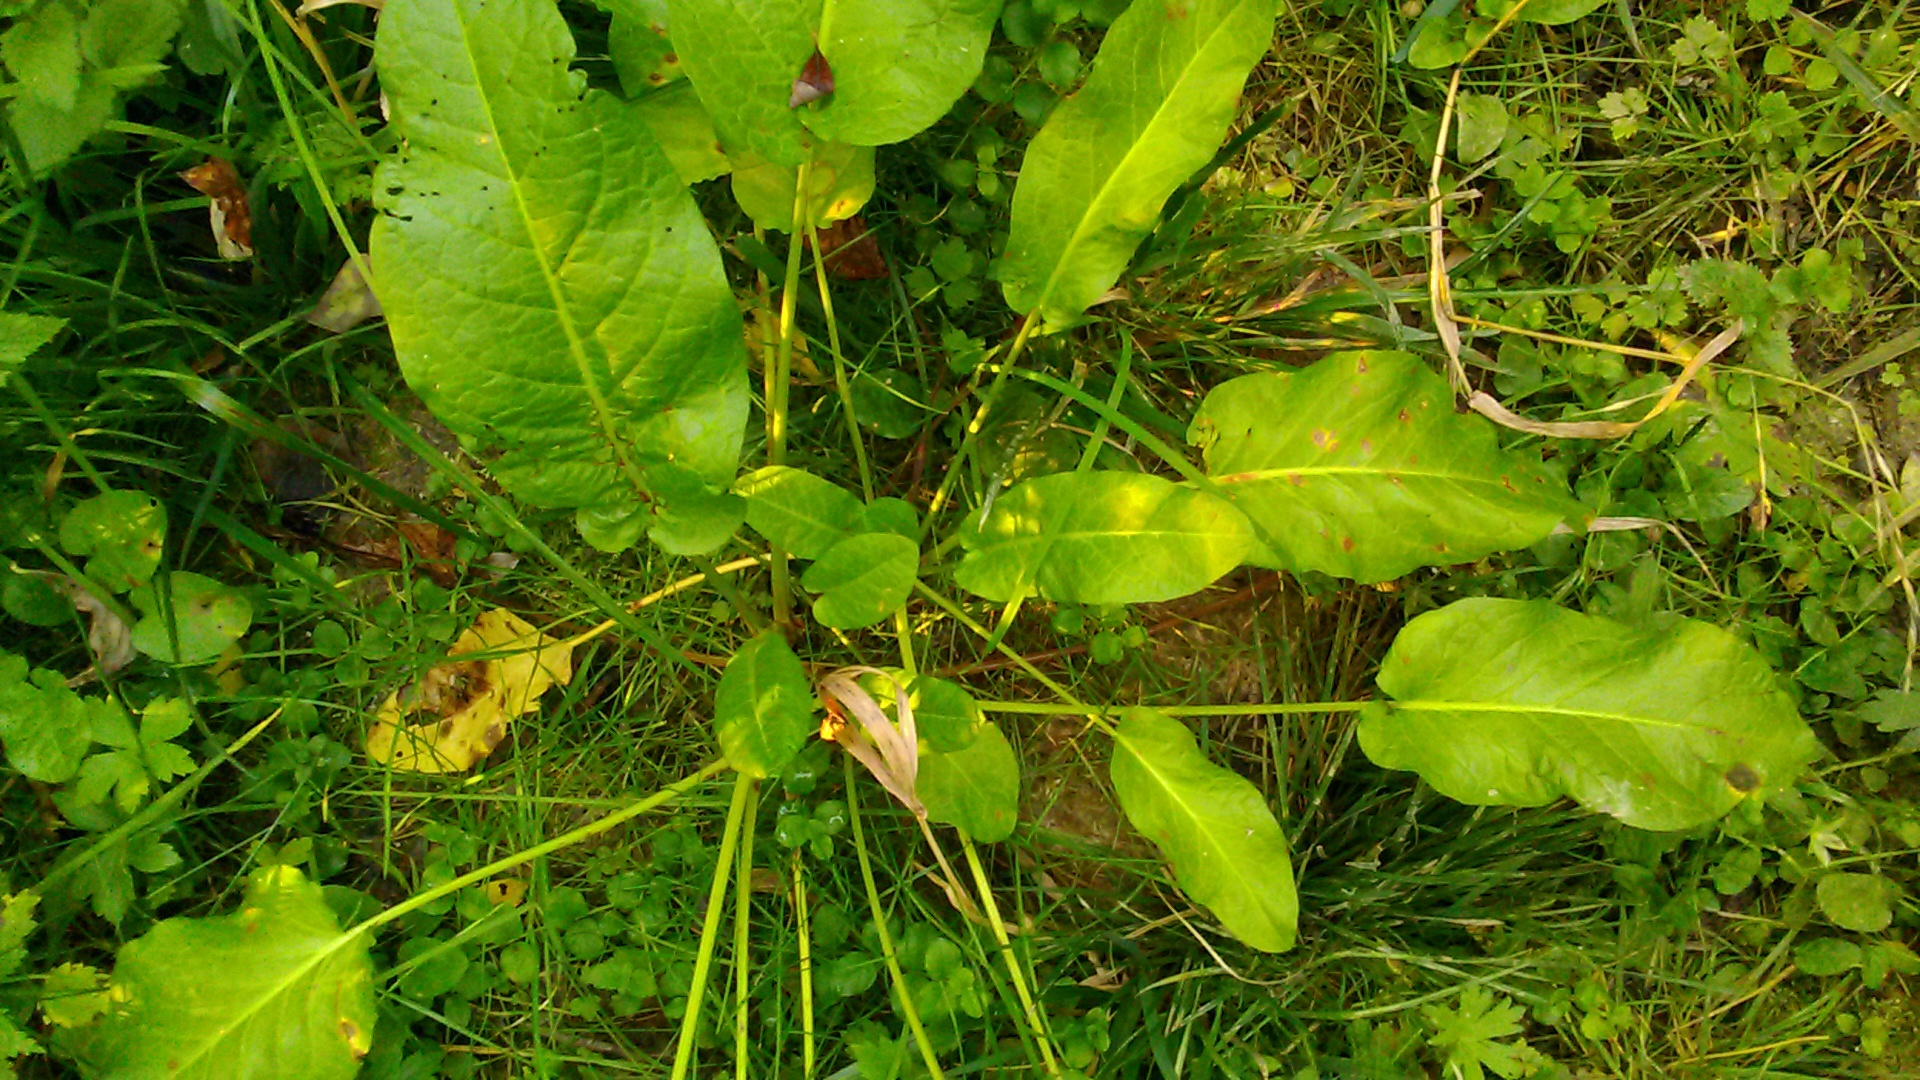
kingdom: Plantae
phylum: Tracheophyta
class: Magnoliopsida
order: Caryophyllales
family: Polygonaceae
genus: Rumex
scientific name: Rumex obtusifolius
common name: Bitter dock
